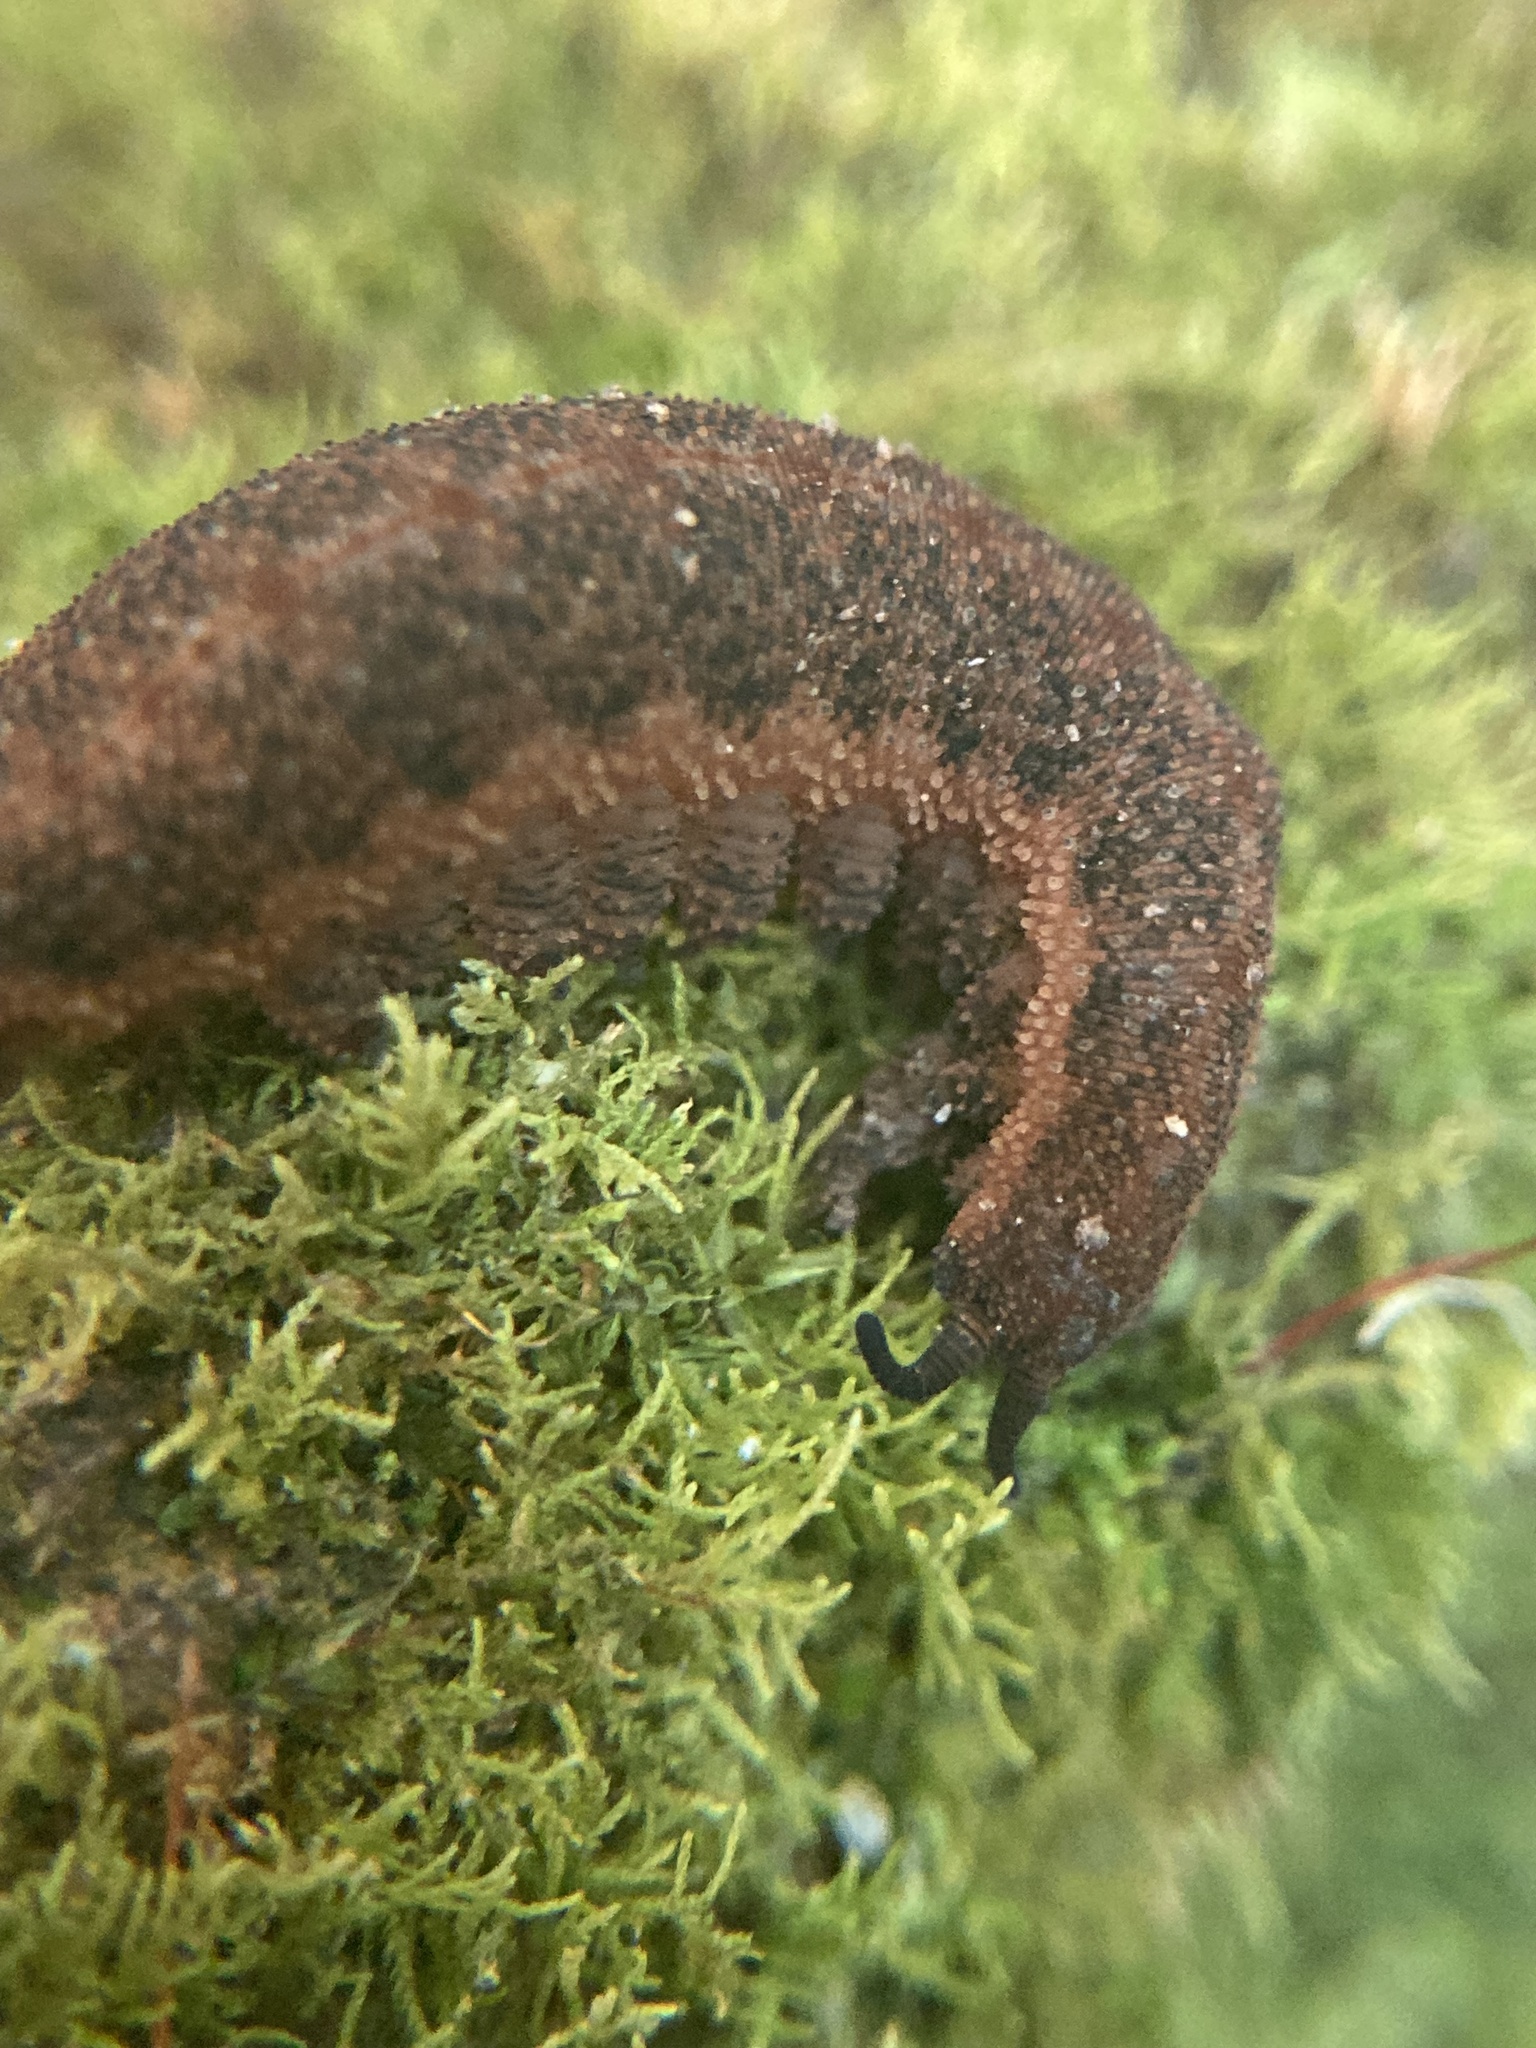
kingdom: Animalia
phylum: Onychophora
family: Peripatopsidae
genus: Anoplokaros
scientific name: Anoplokaros keerensis
